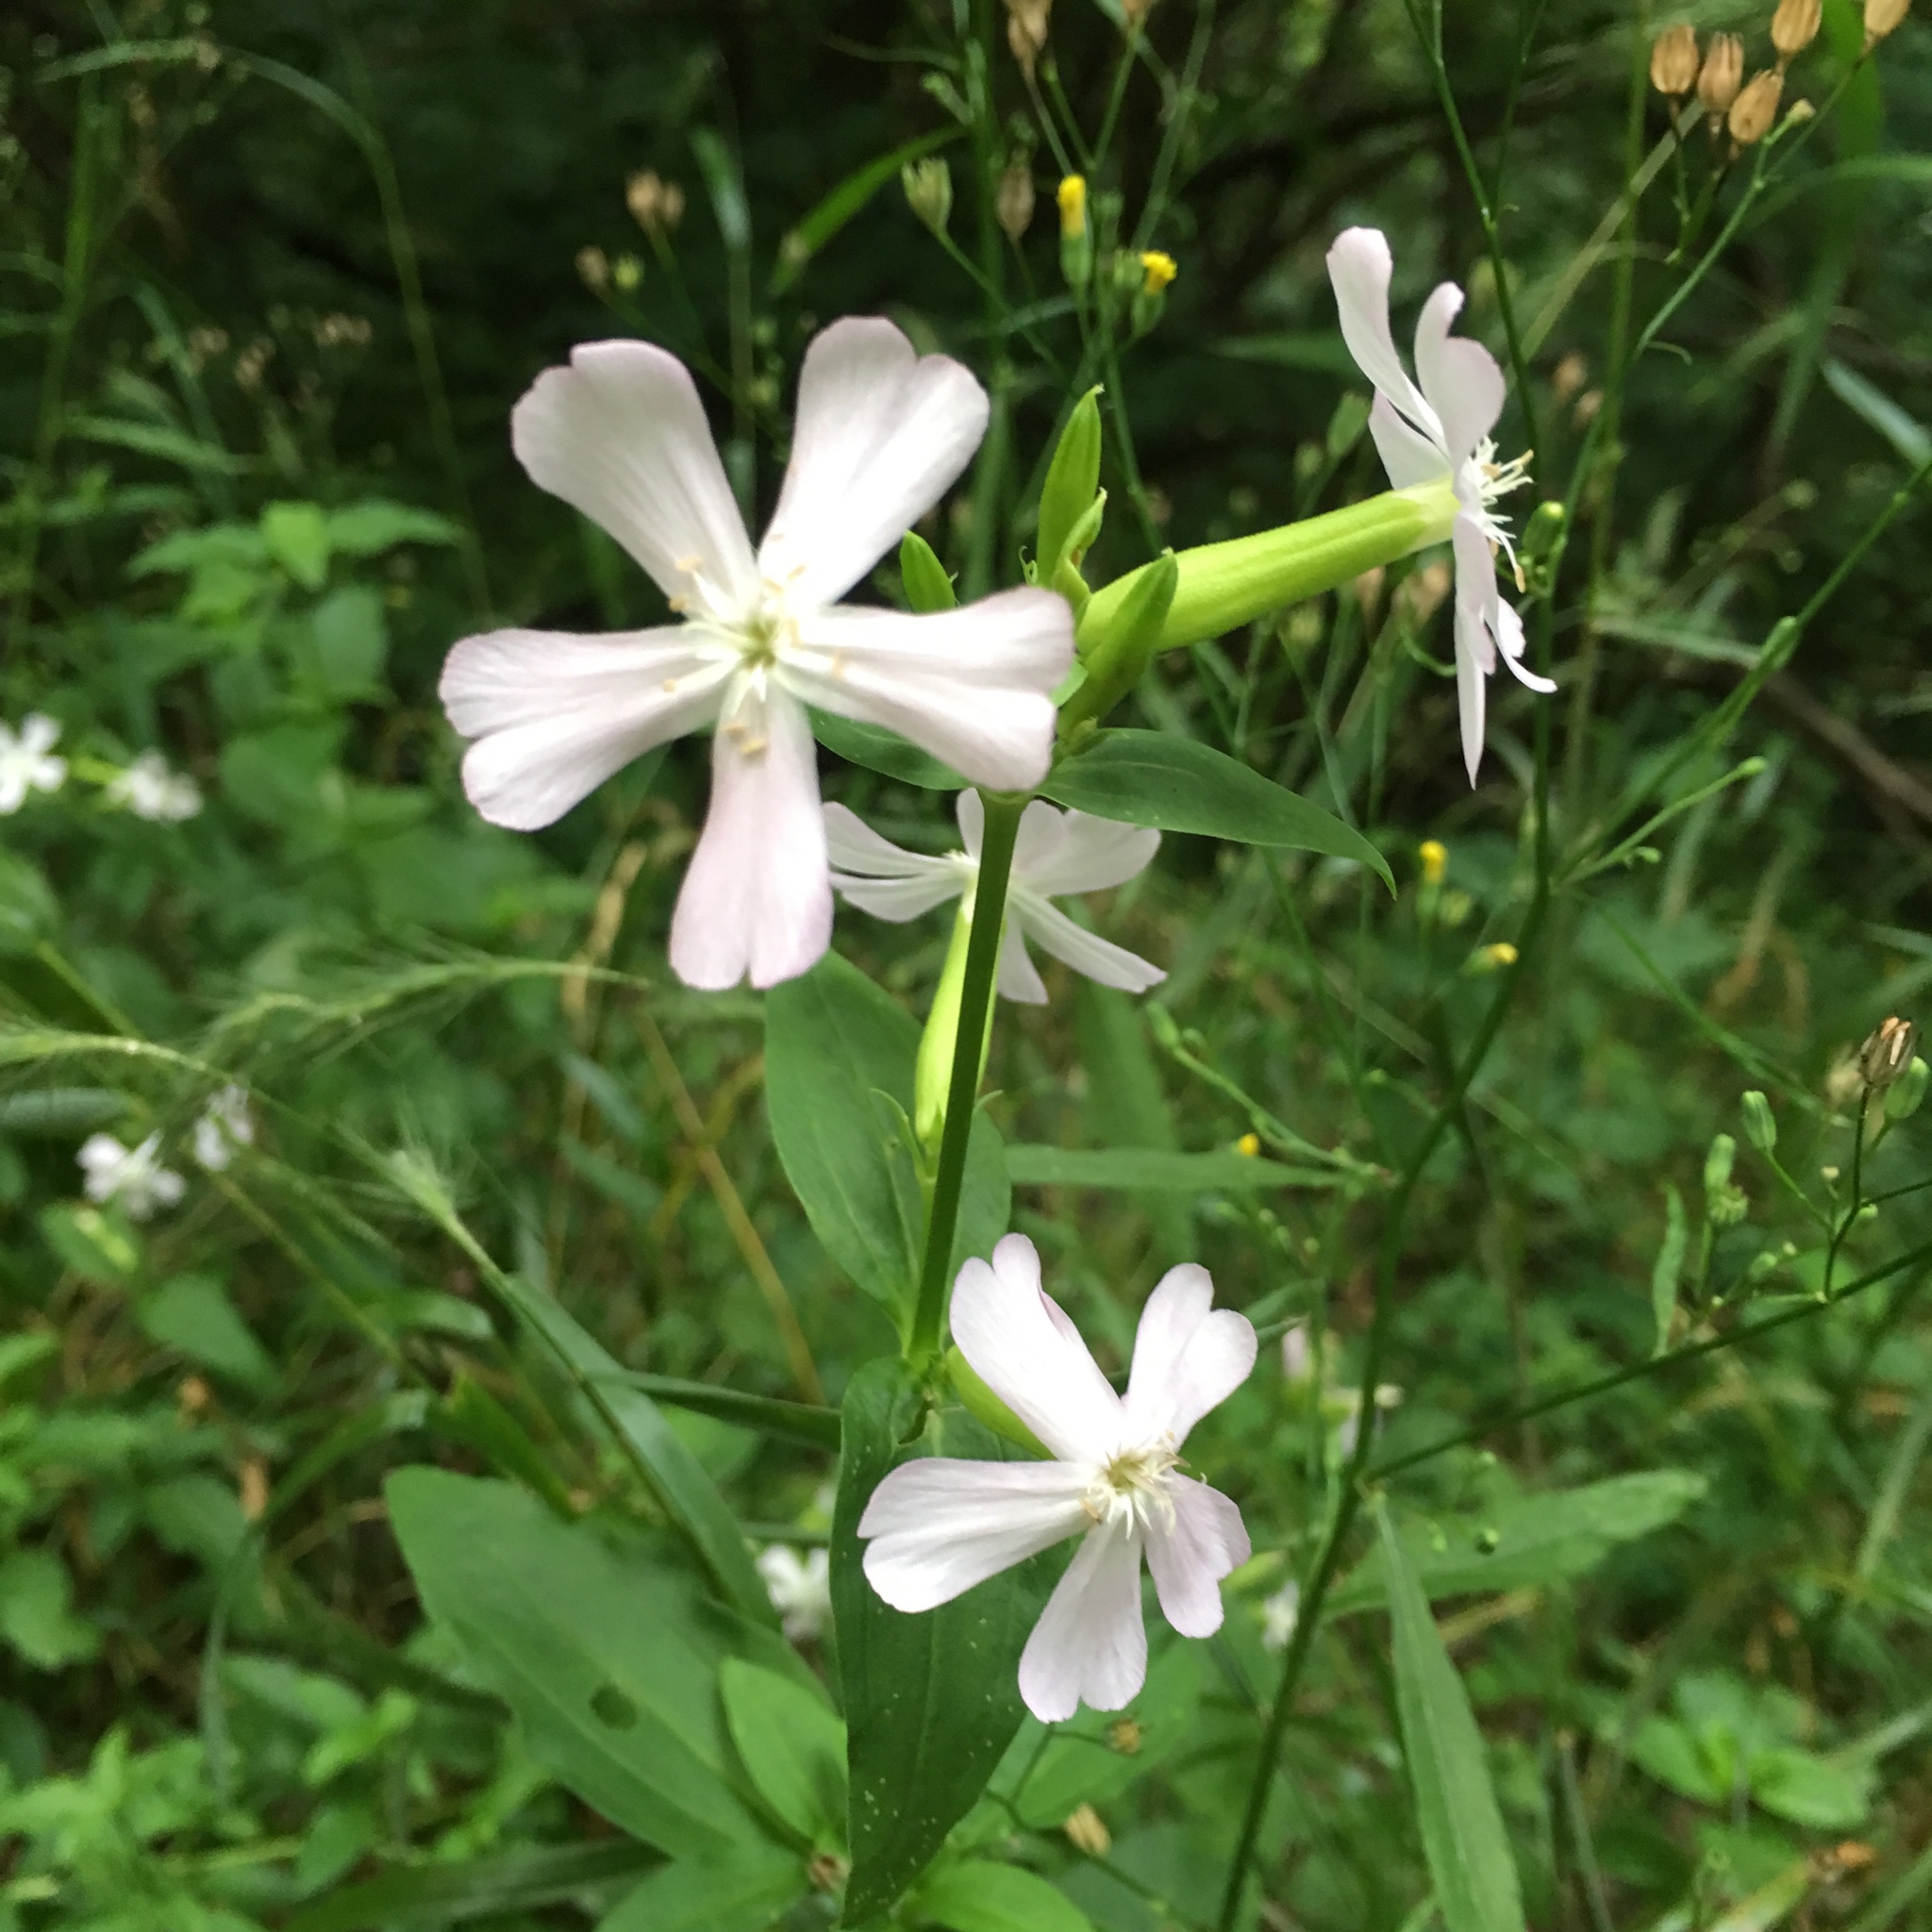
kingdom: Plantae
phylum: Tracheophyta
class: Magnoliopsida
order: Caryophyllales
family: Caryophyllaceae
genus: Saponaria
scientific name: Saponaria officinalis
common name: Soapwort
